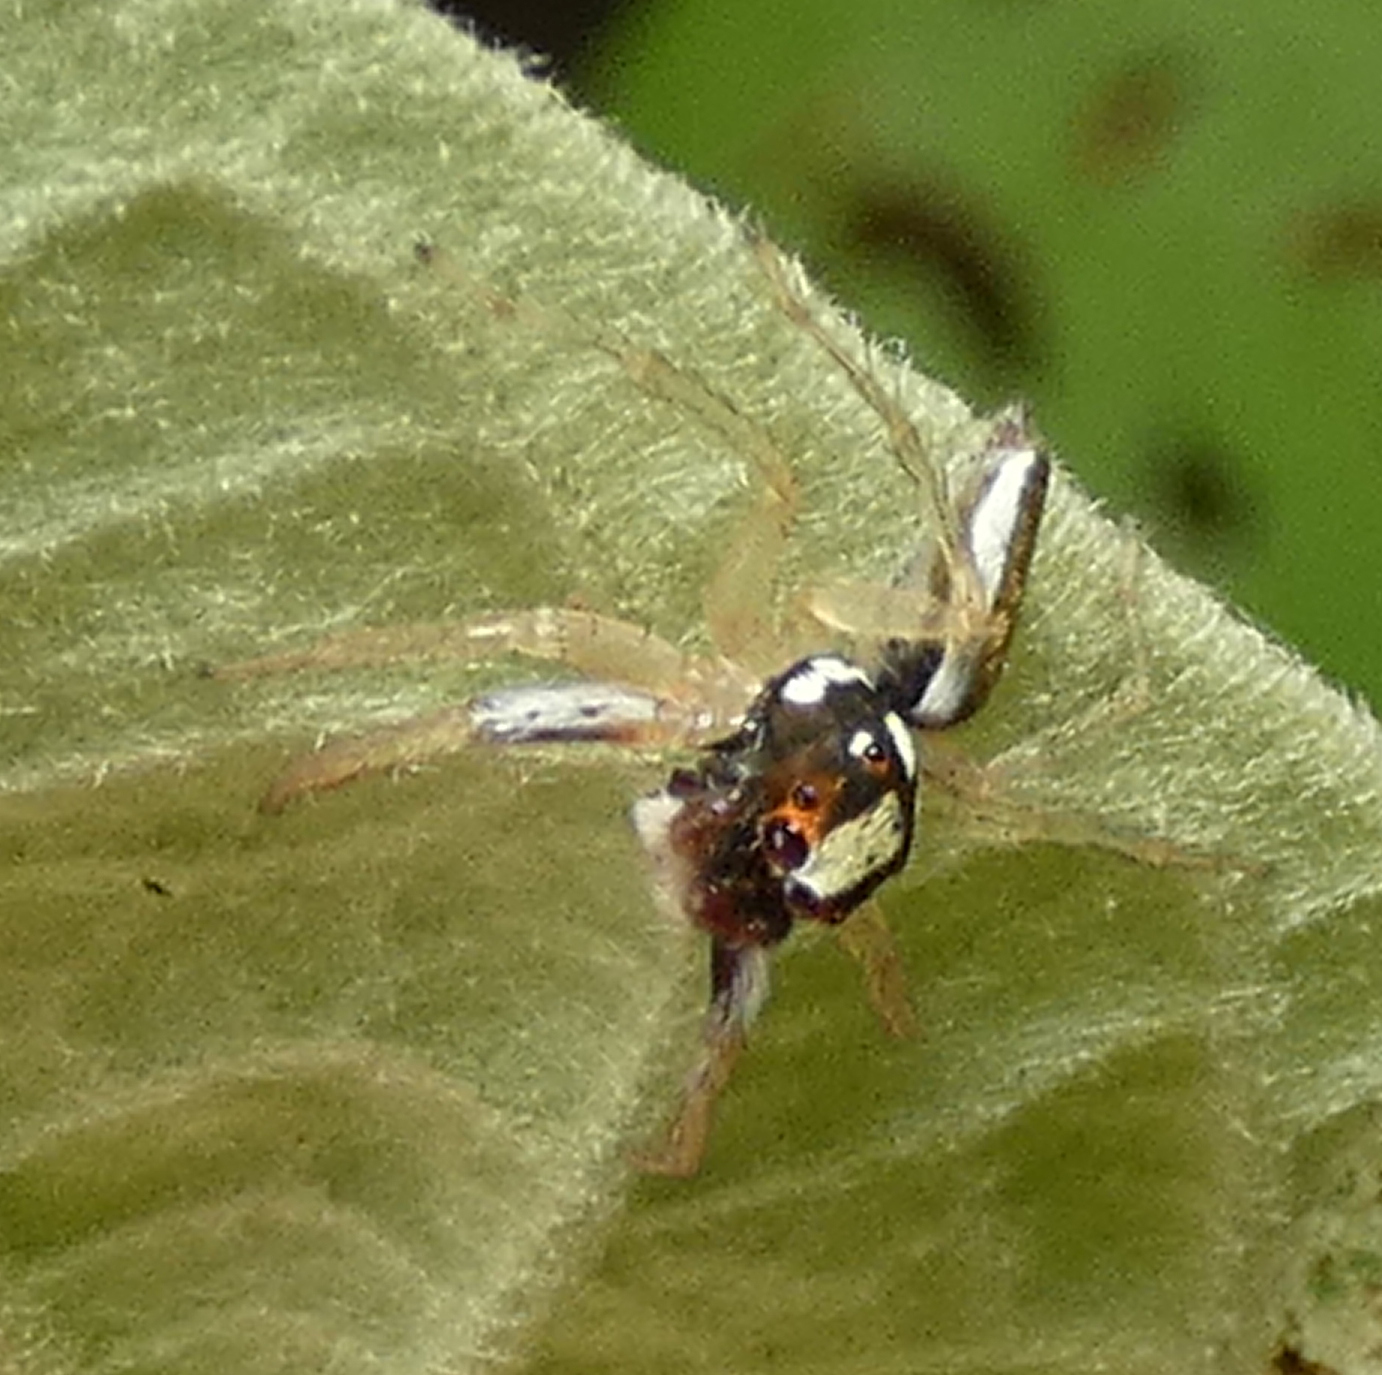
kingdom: Animalia
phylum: Arthropoda
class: Arachnida
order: Araneae
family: Salticidae
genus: Chira
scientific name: Chira spinosa
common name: Jumping spiders
